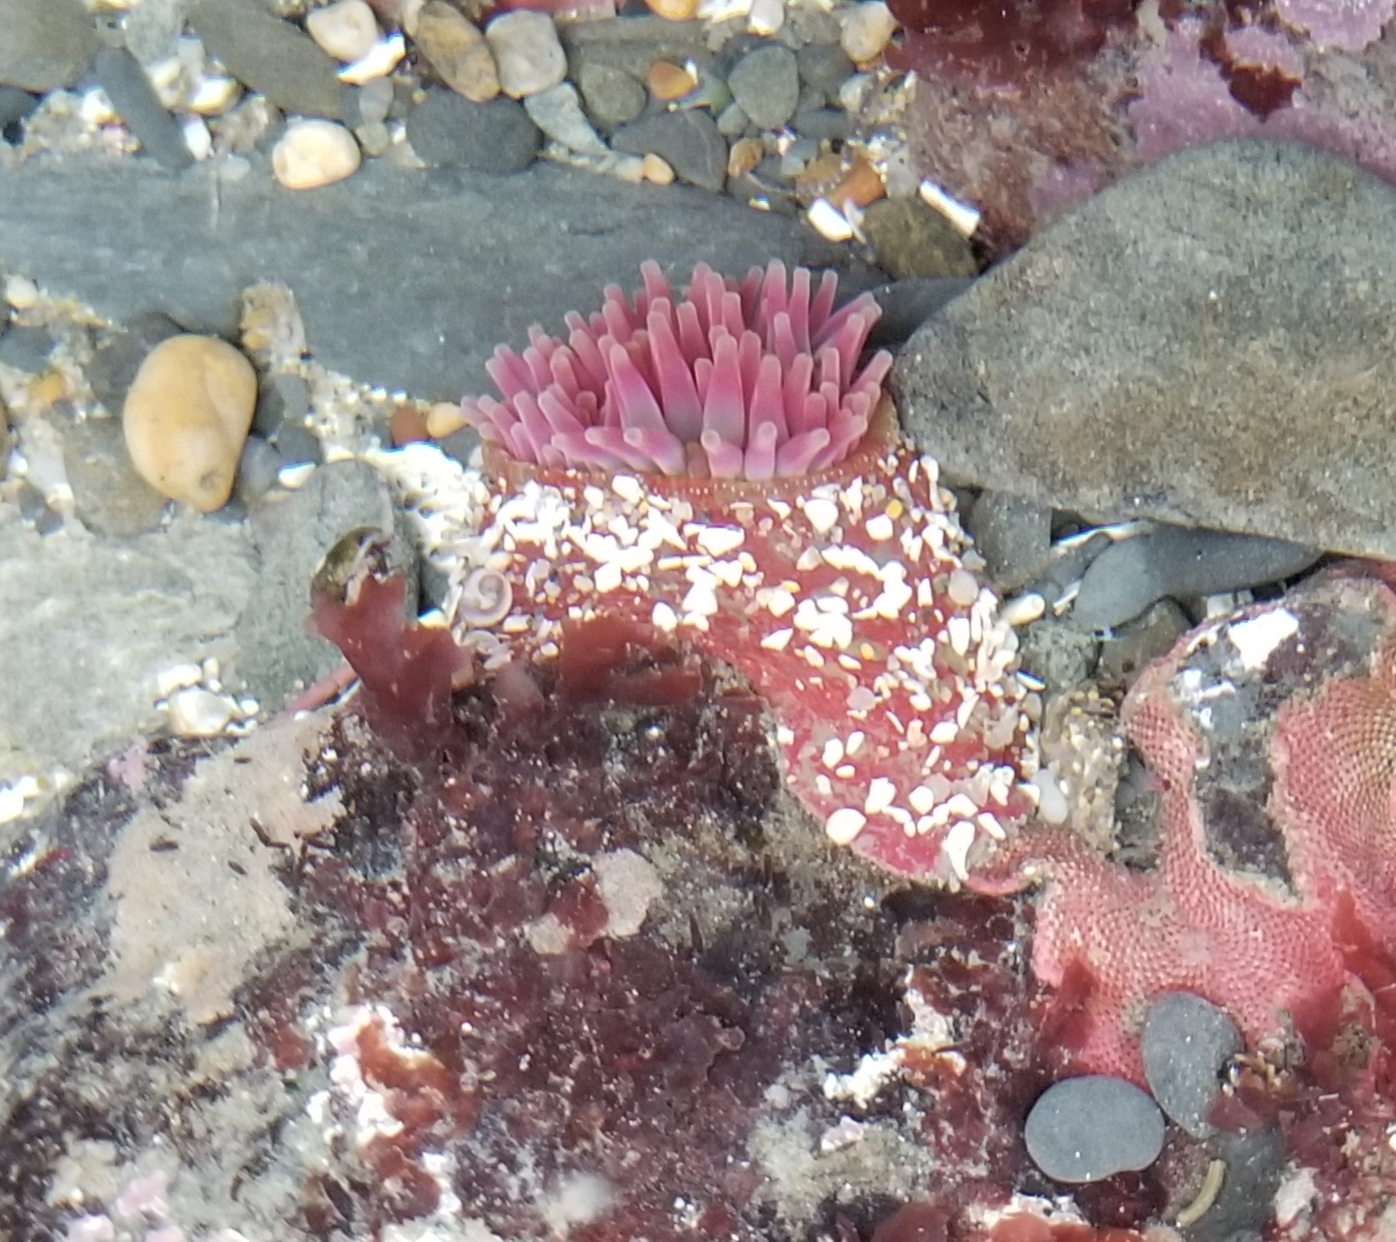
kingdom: Animalia
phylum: Cnidaria
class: Anthozoa
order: Actiniaria
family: Actiniidae
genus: Urticina
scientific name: Urticina grebelnyi
